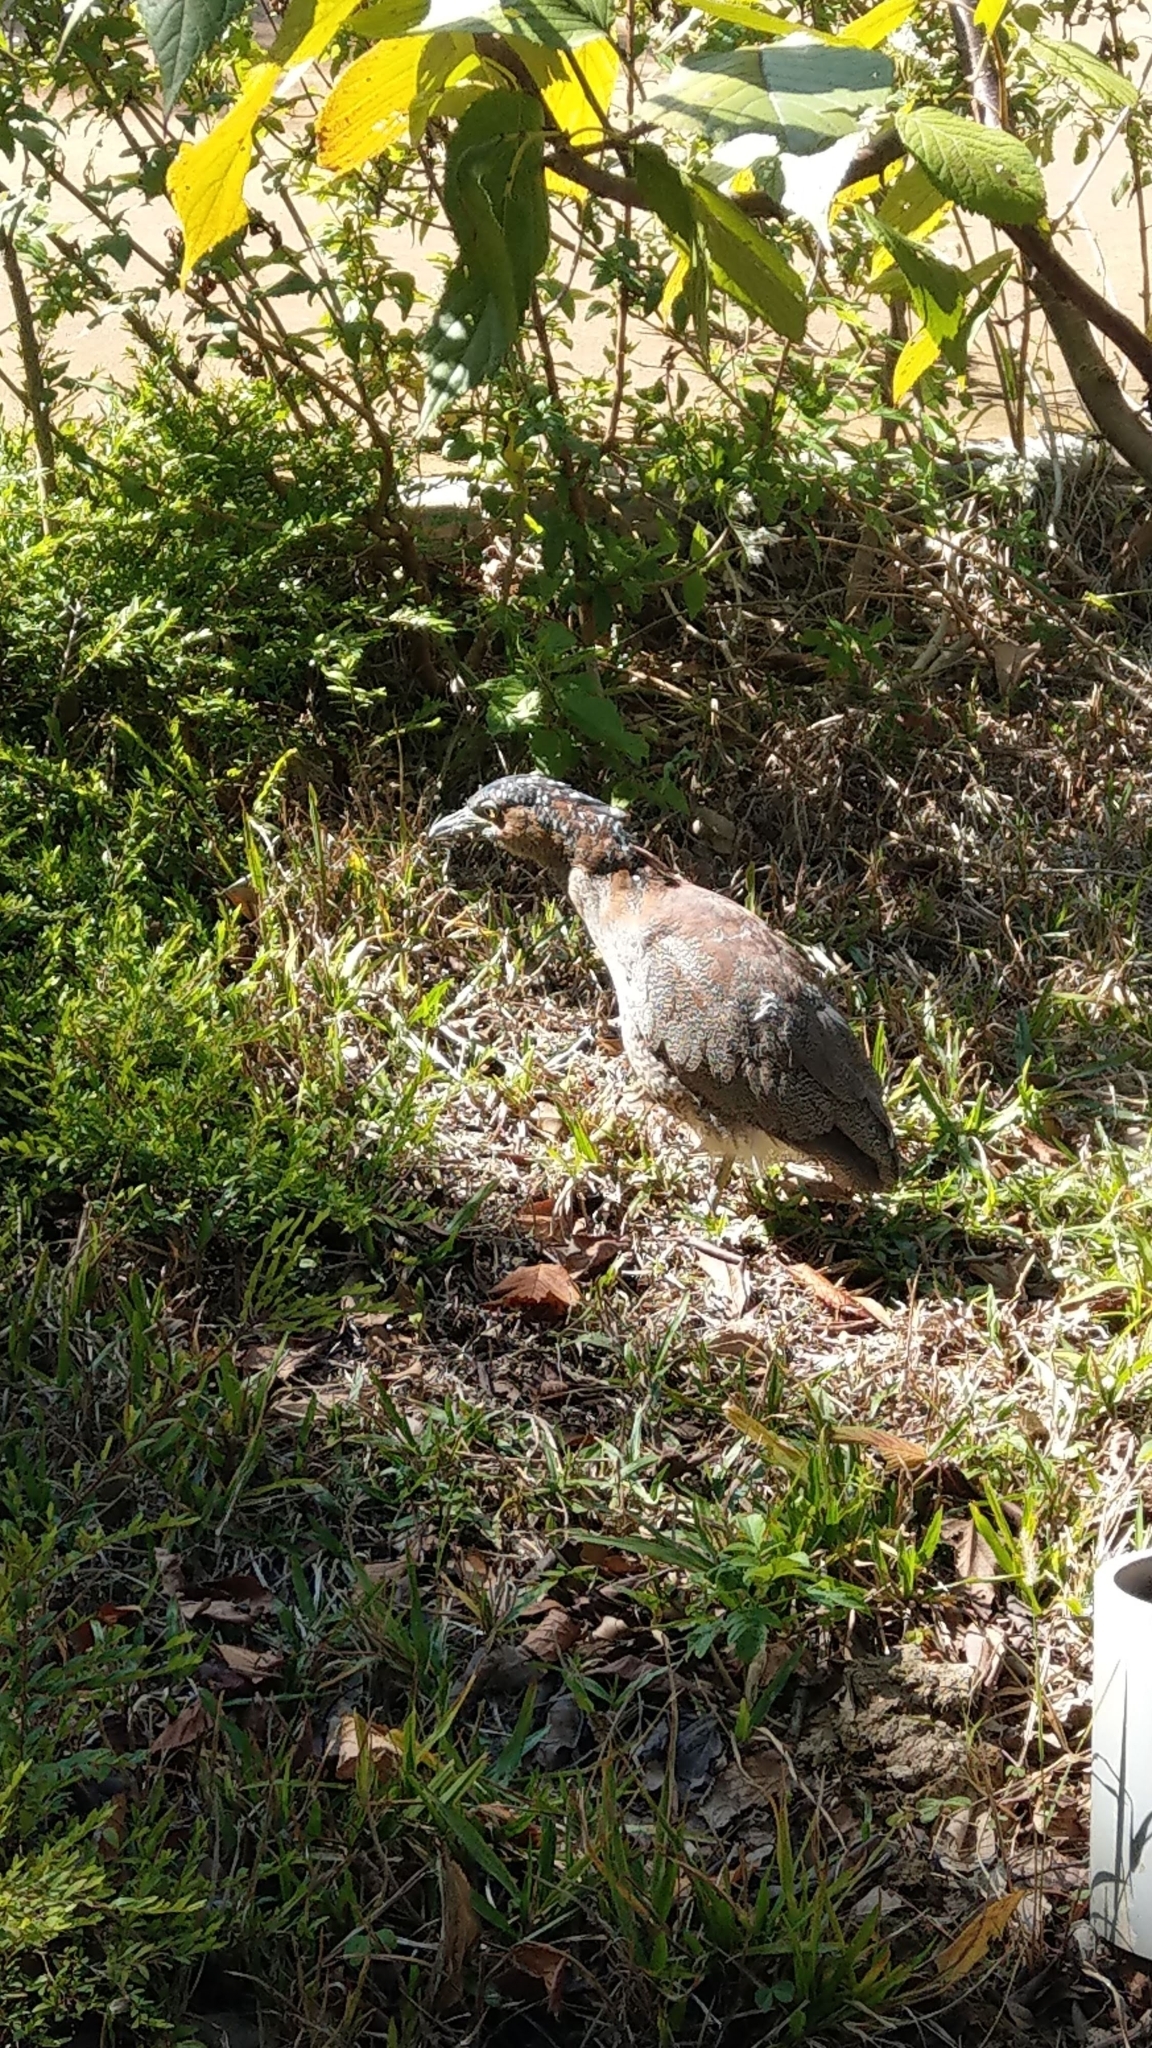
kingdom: Animalia
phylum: Chordata
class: Aves
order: Pelecaniformes
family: Ardeidae
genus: Gorsachius
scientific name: Gorsachius melanolophus
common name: Malayan night heron
